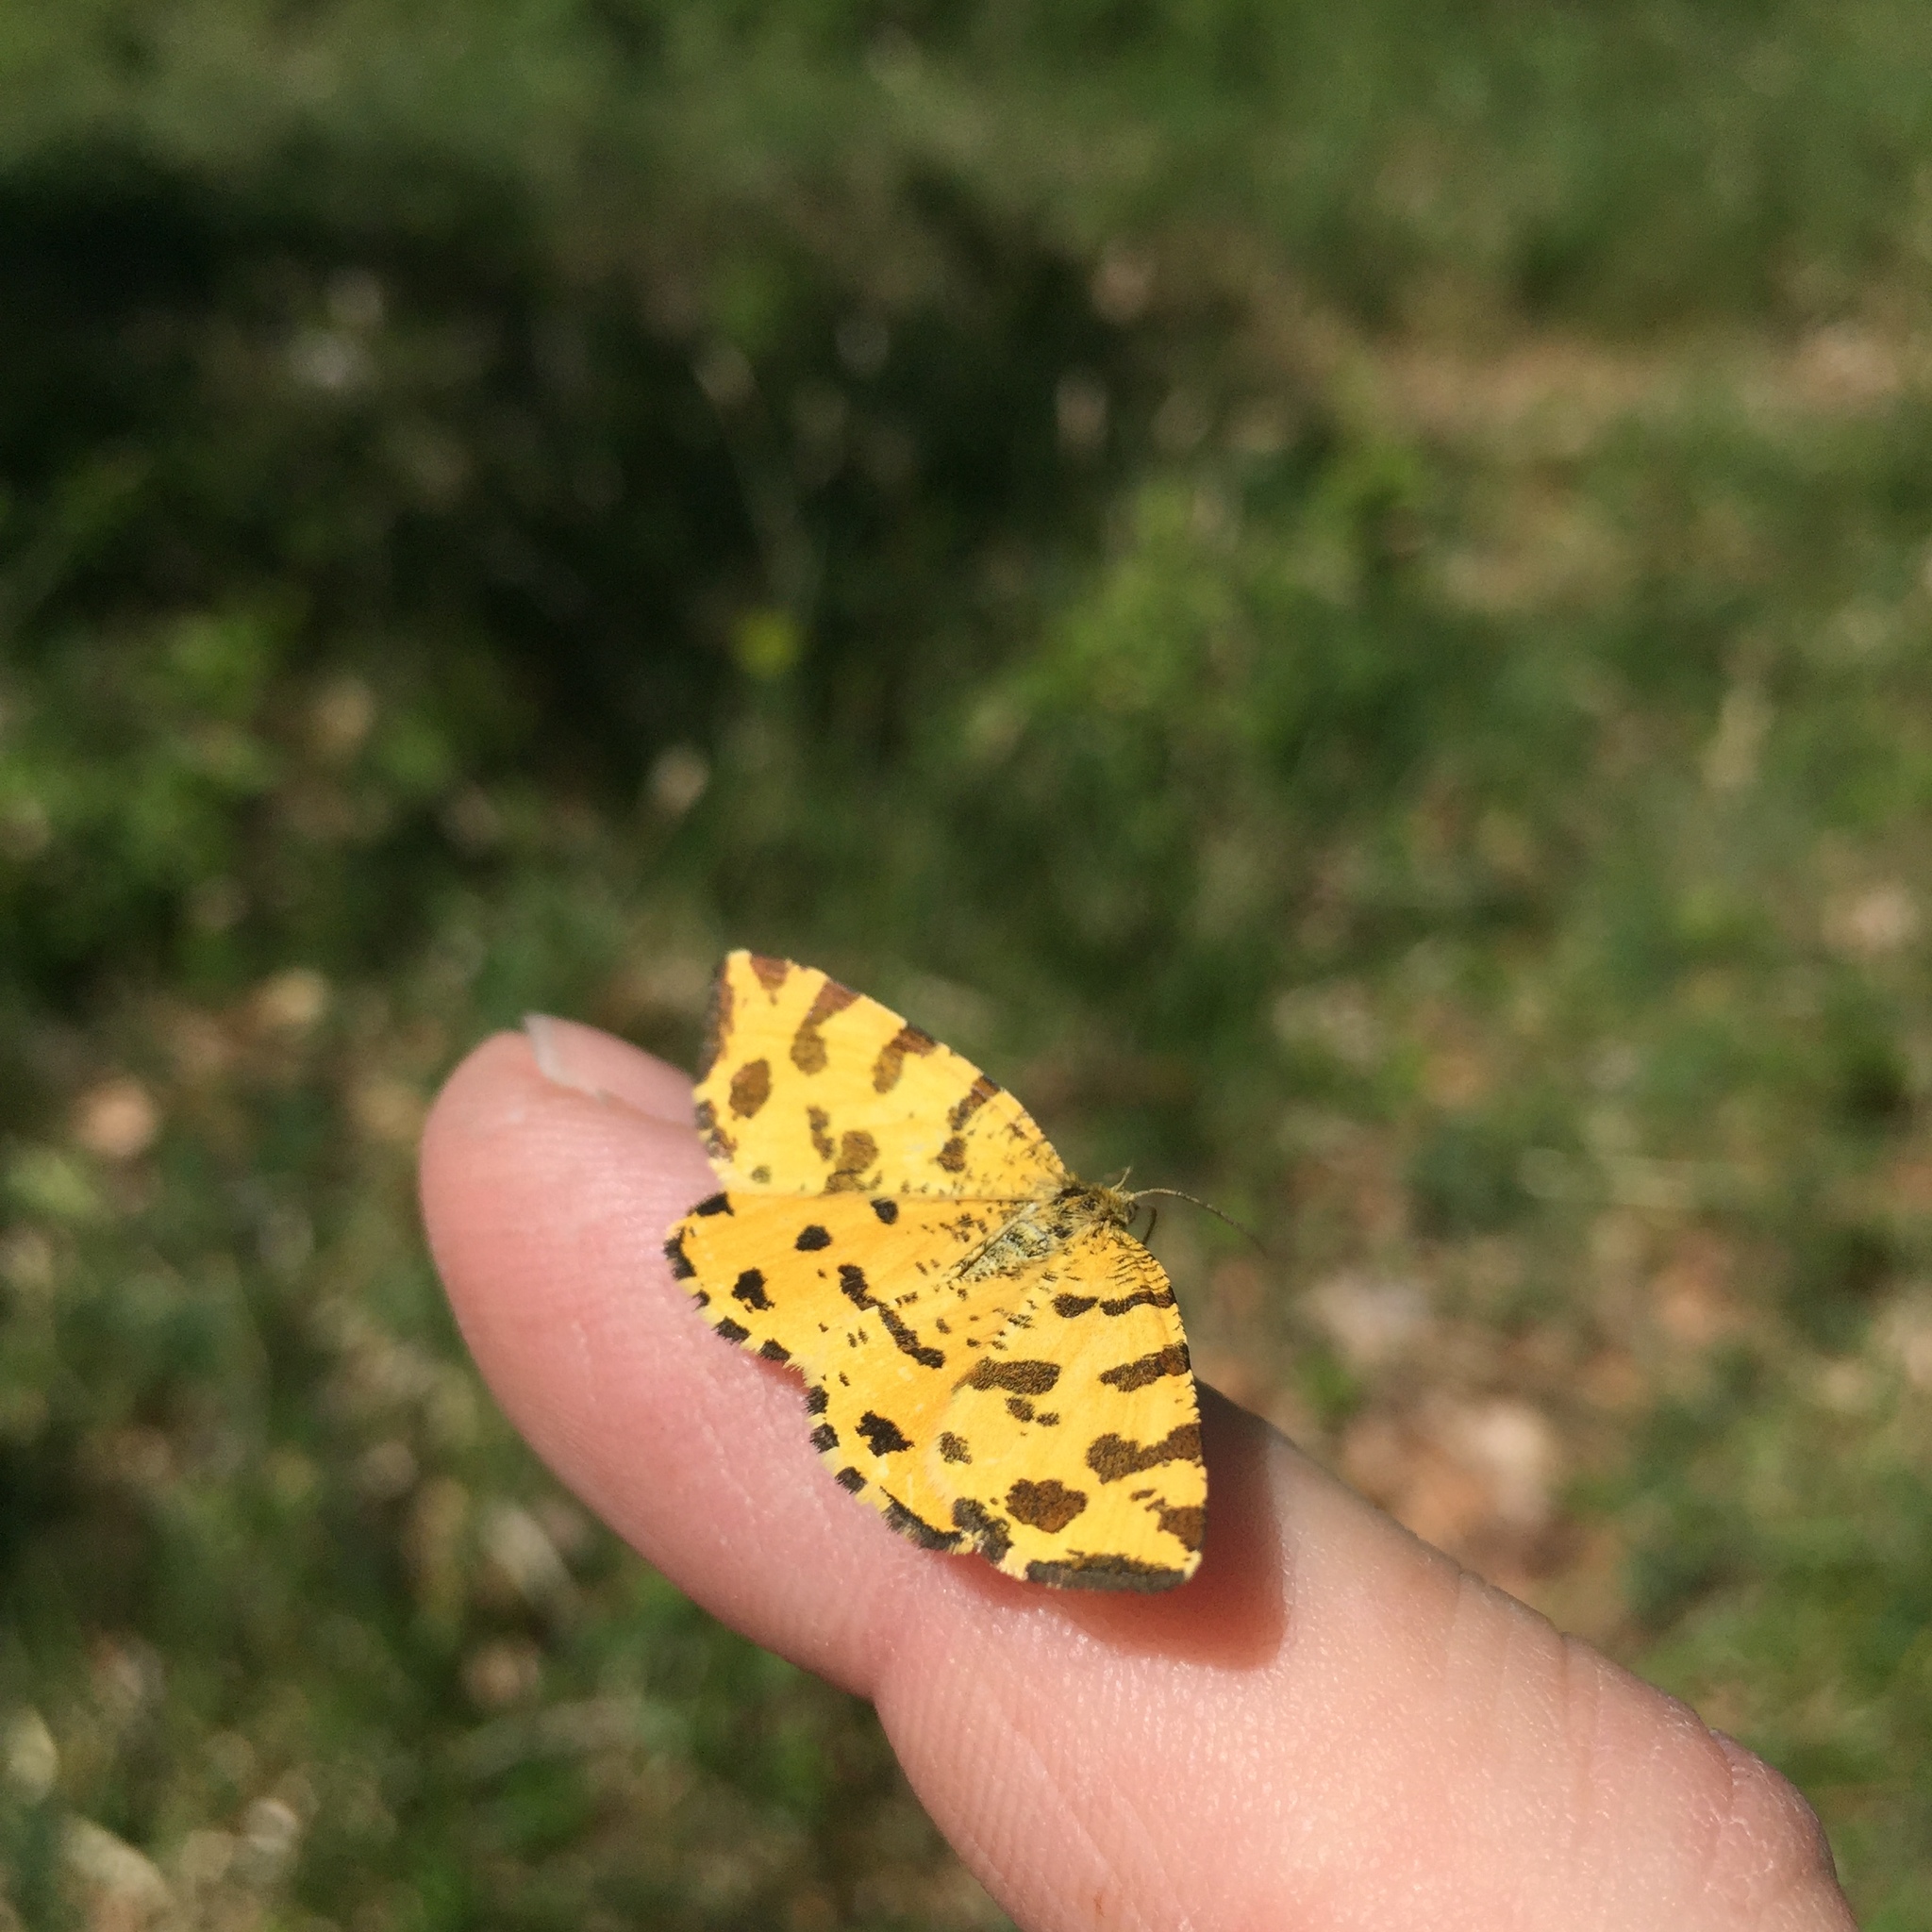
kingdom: Animalia
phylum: Arthropoda
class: Insecta
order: Lepidoptera
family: Geometridae
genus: Pseudopanthera
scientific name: Pseudopanthera macularia
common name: Speckled yellow
